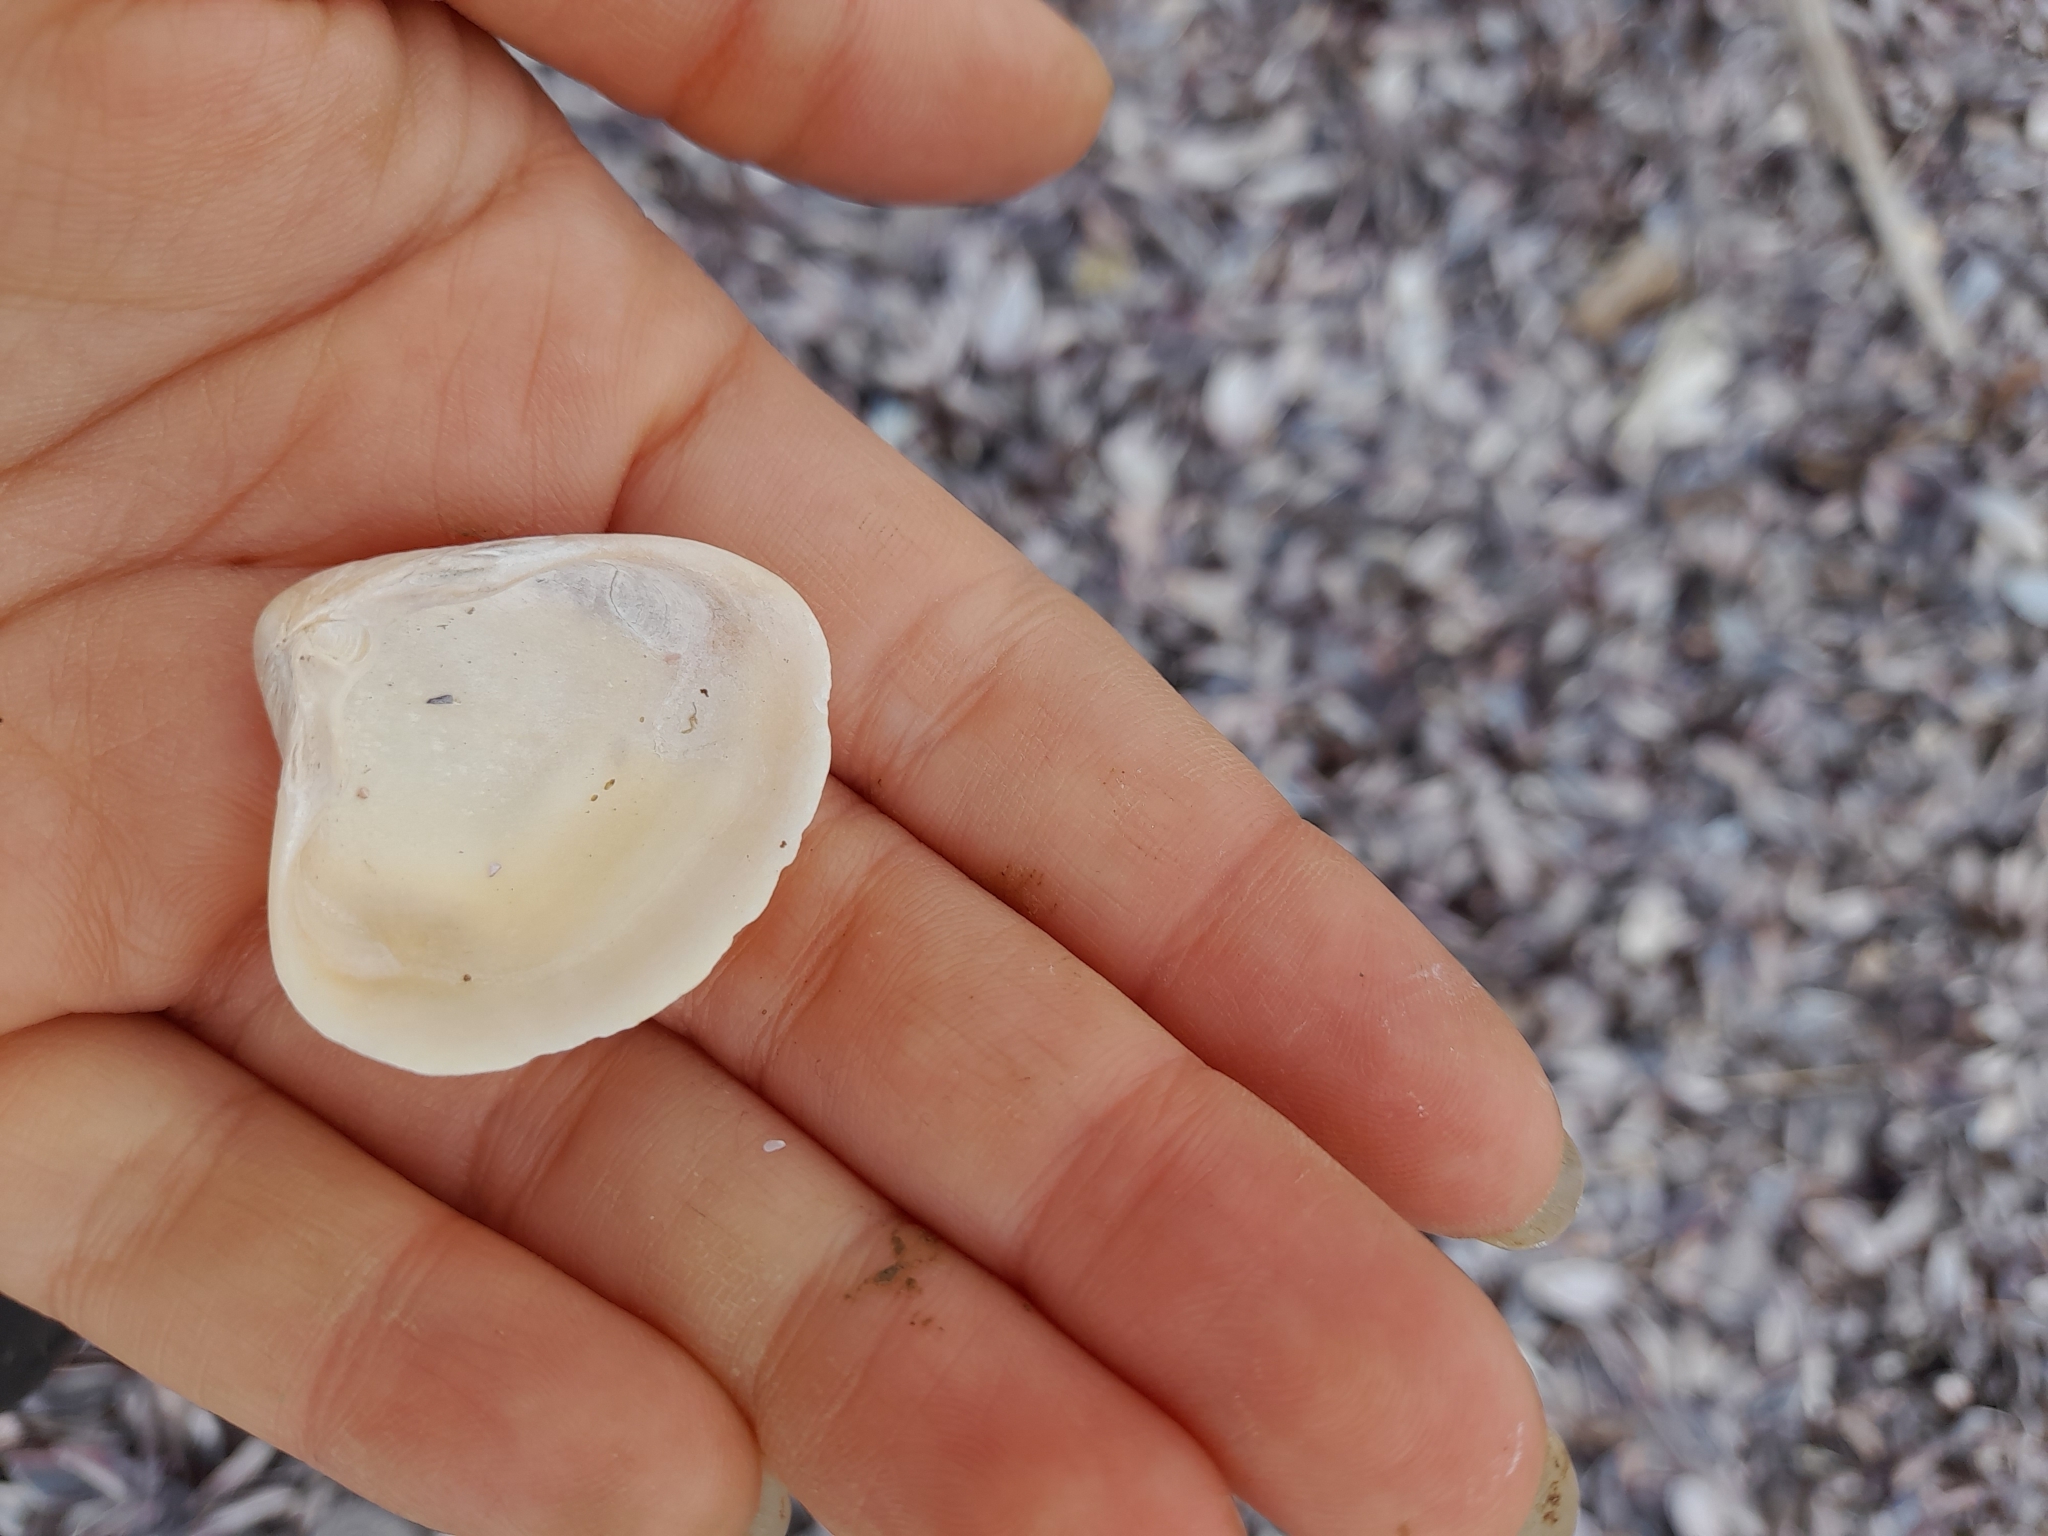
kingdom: Animalia
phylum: Mollusca
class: Bivalvia
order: Venerida
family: Mactridae
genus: Mactra
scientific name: Mactra isabelleana
